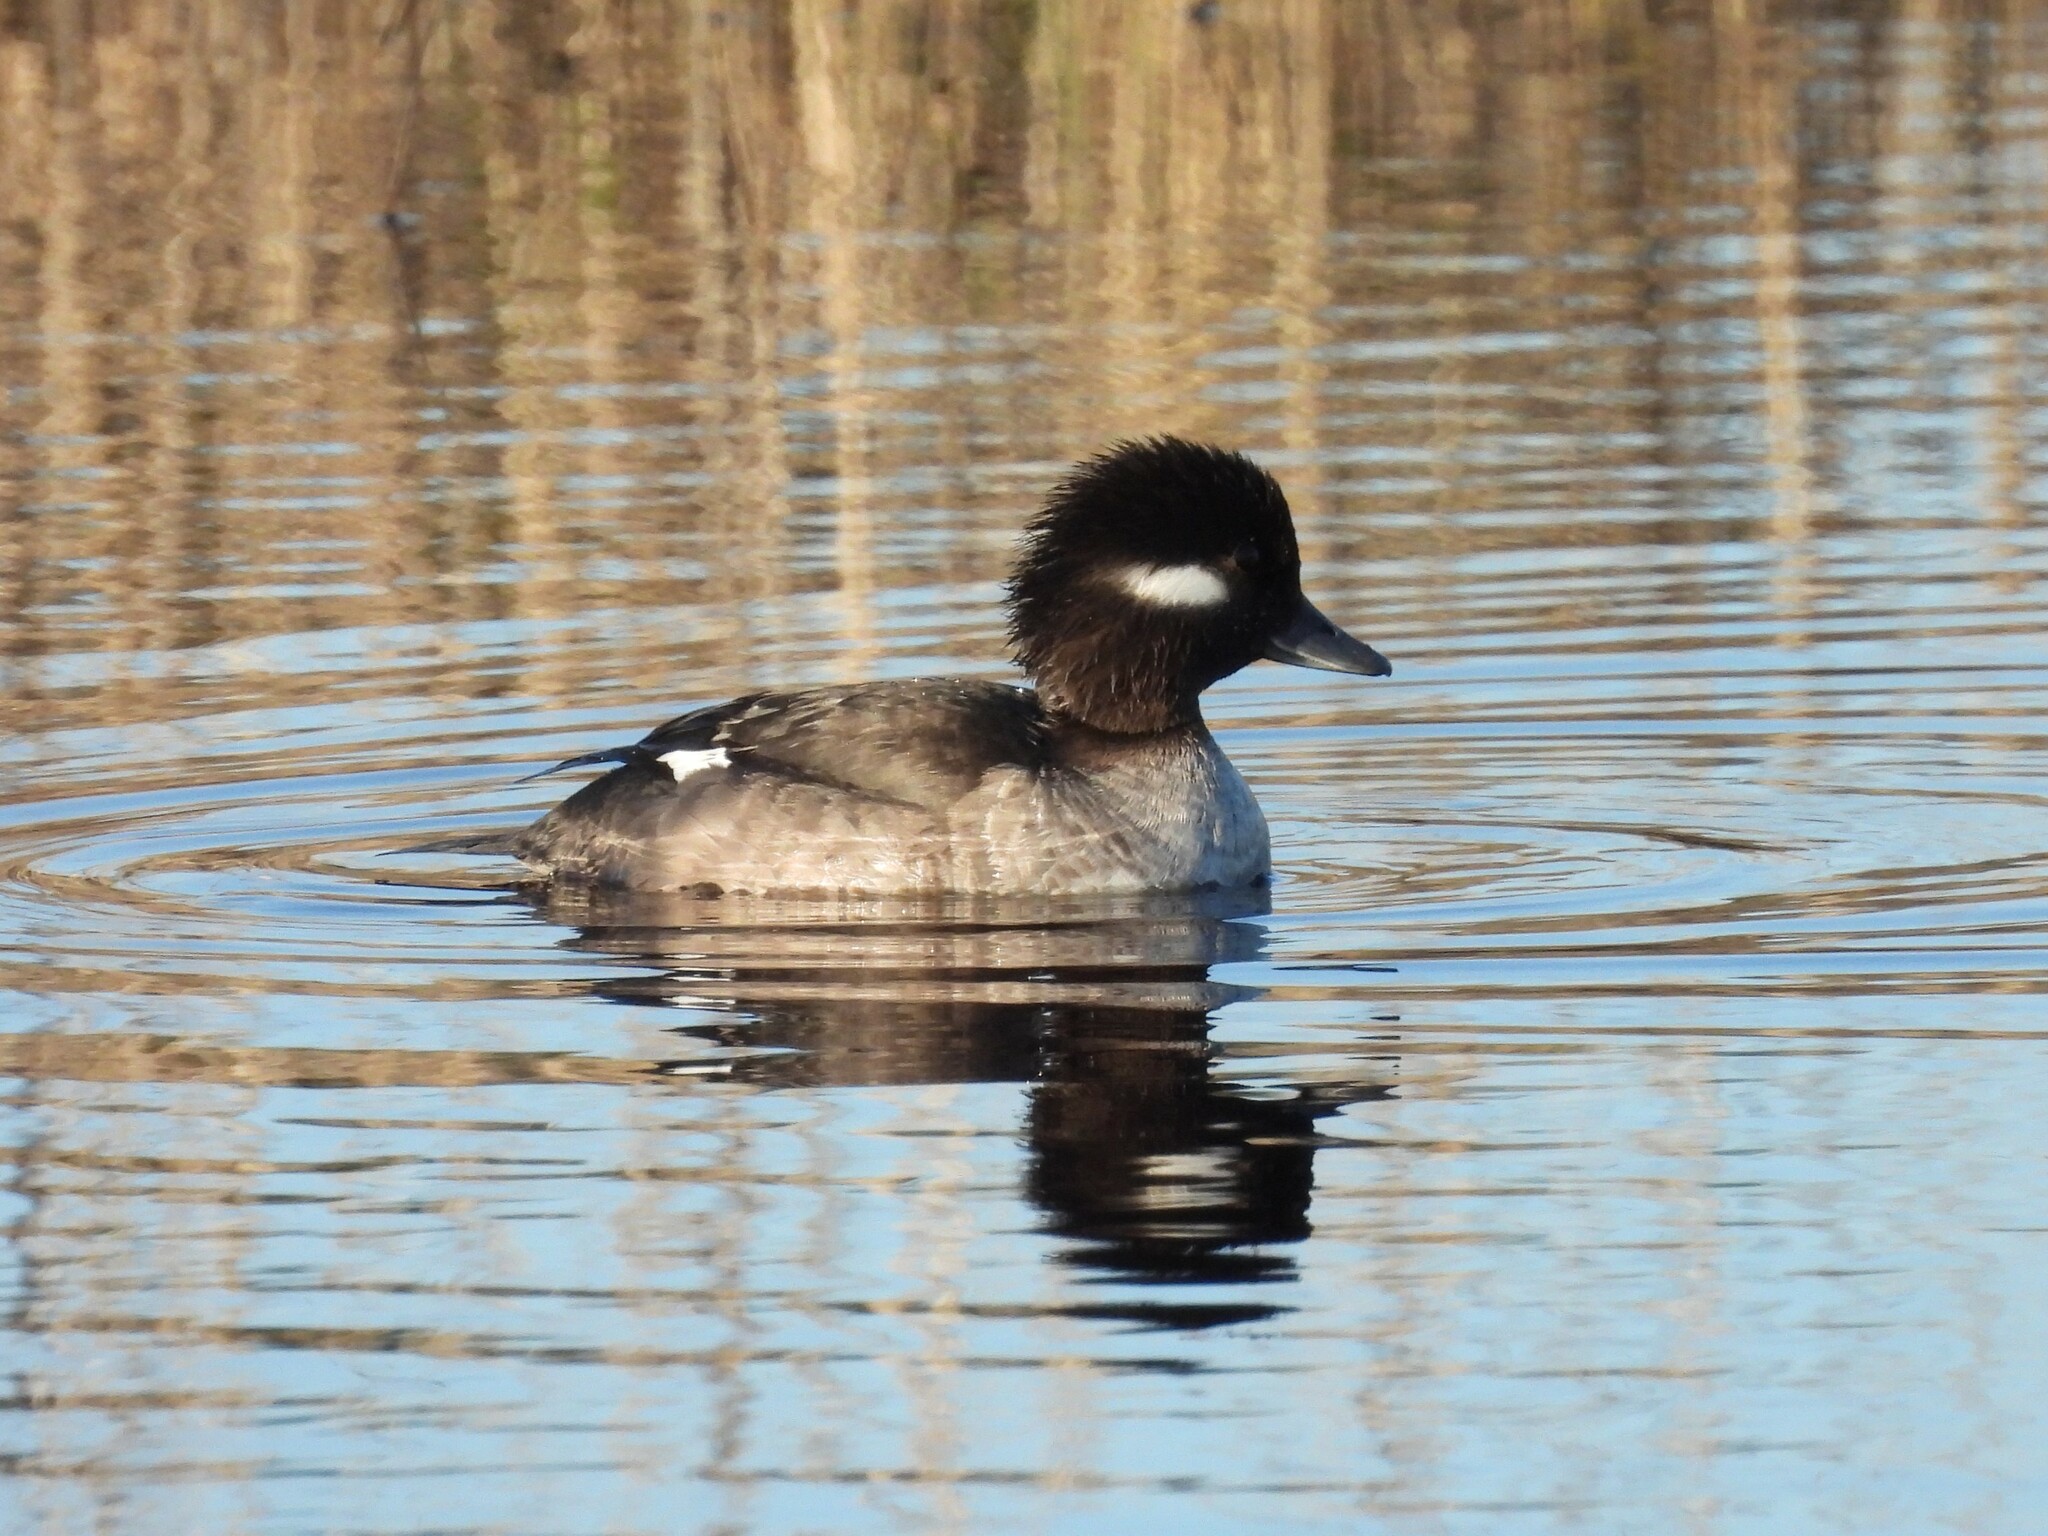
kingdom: Animalia
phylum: Chordata
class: Aves
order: Anseriformes
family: Anatidae
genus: Bucephala
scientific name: Bucephala albeola
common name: Bufflehead
